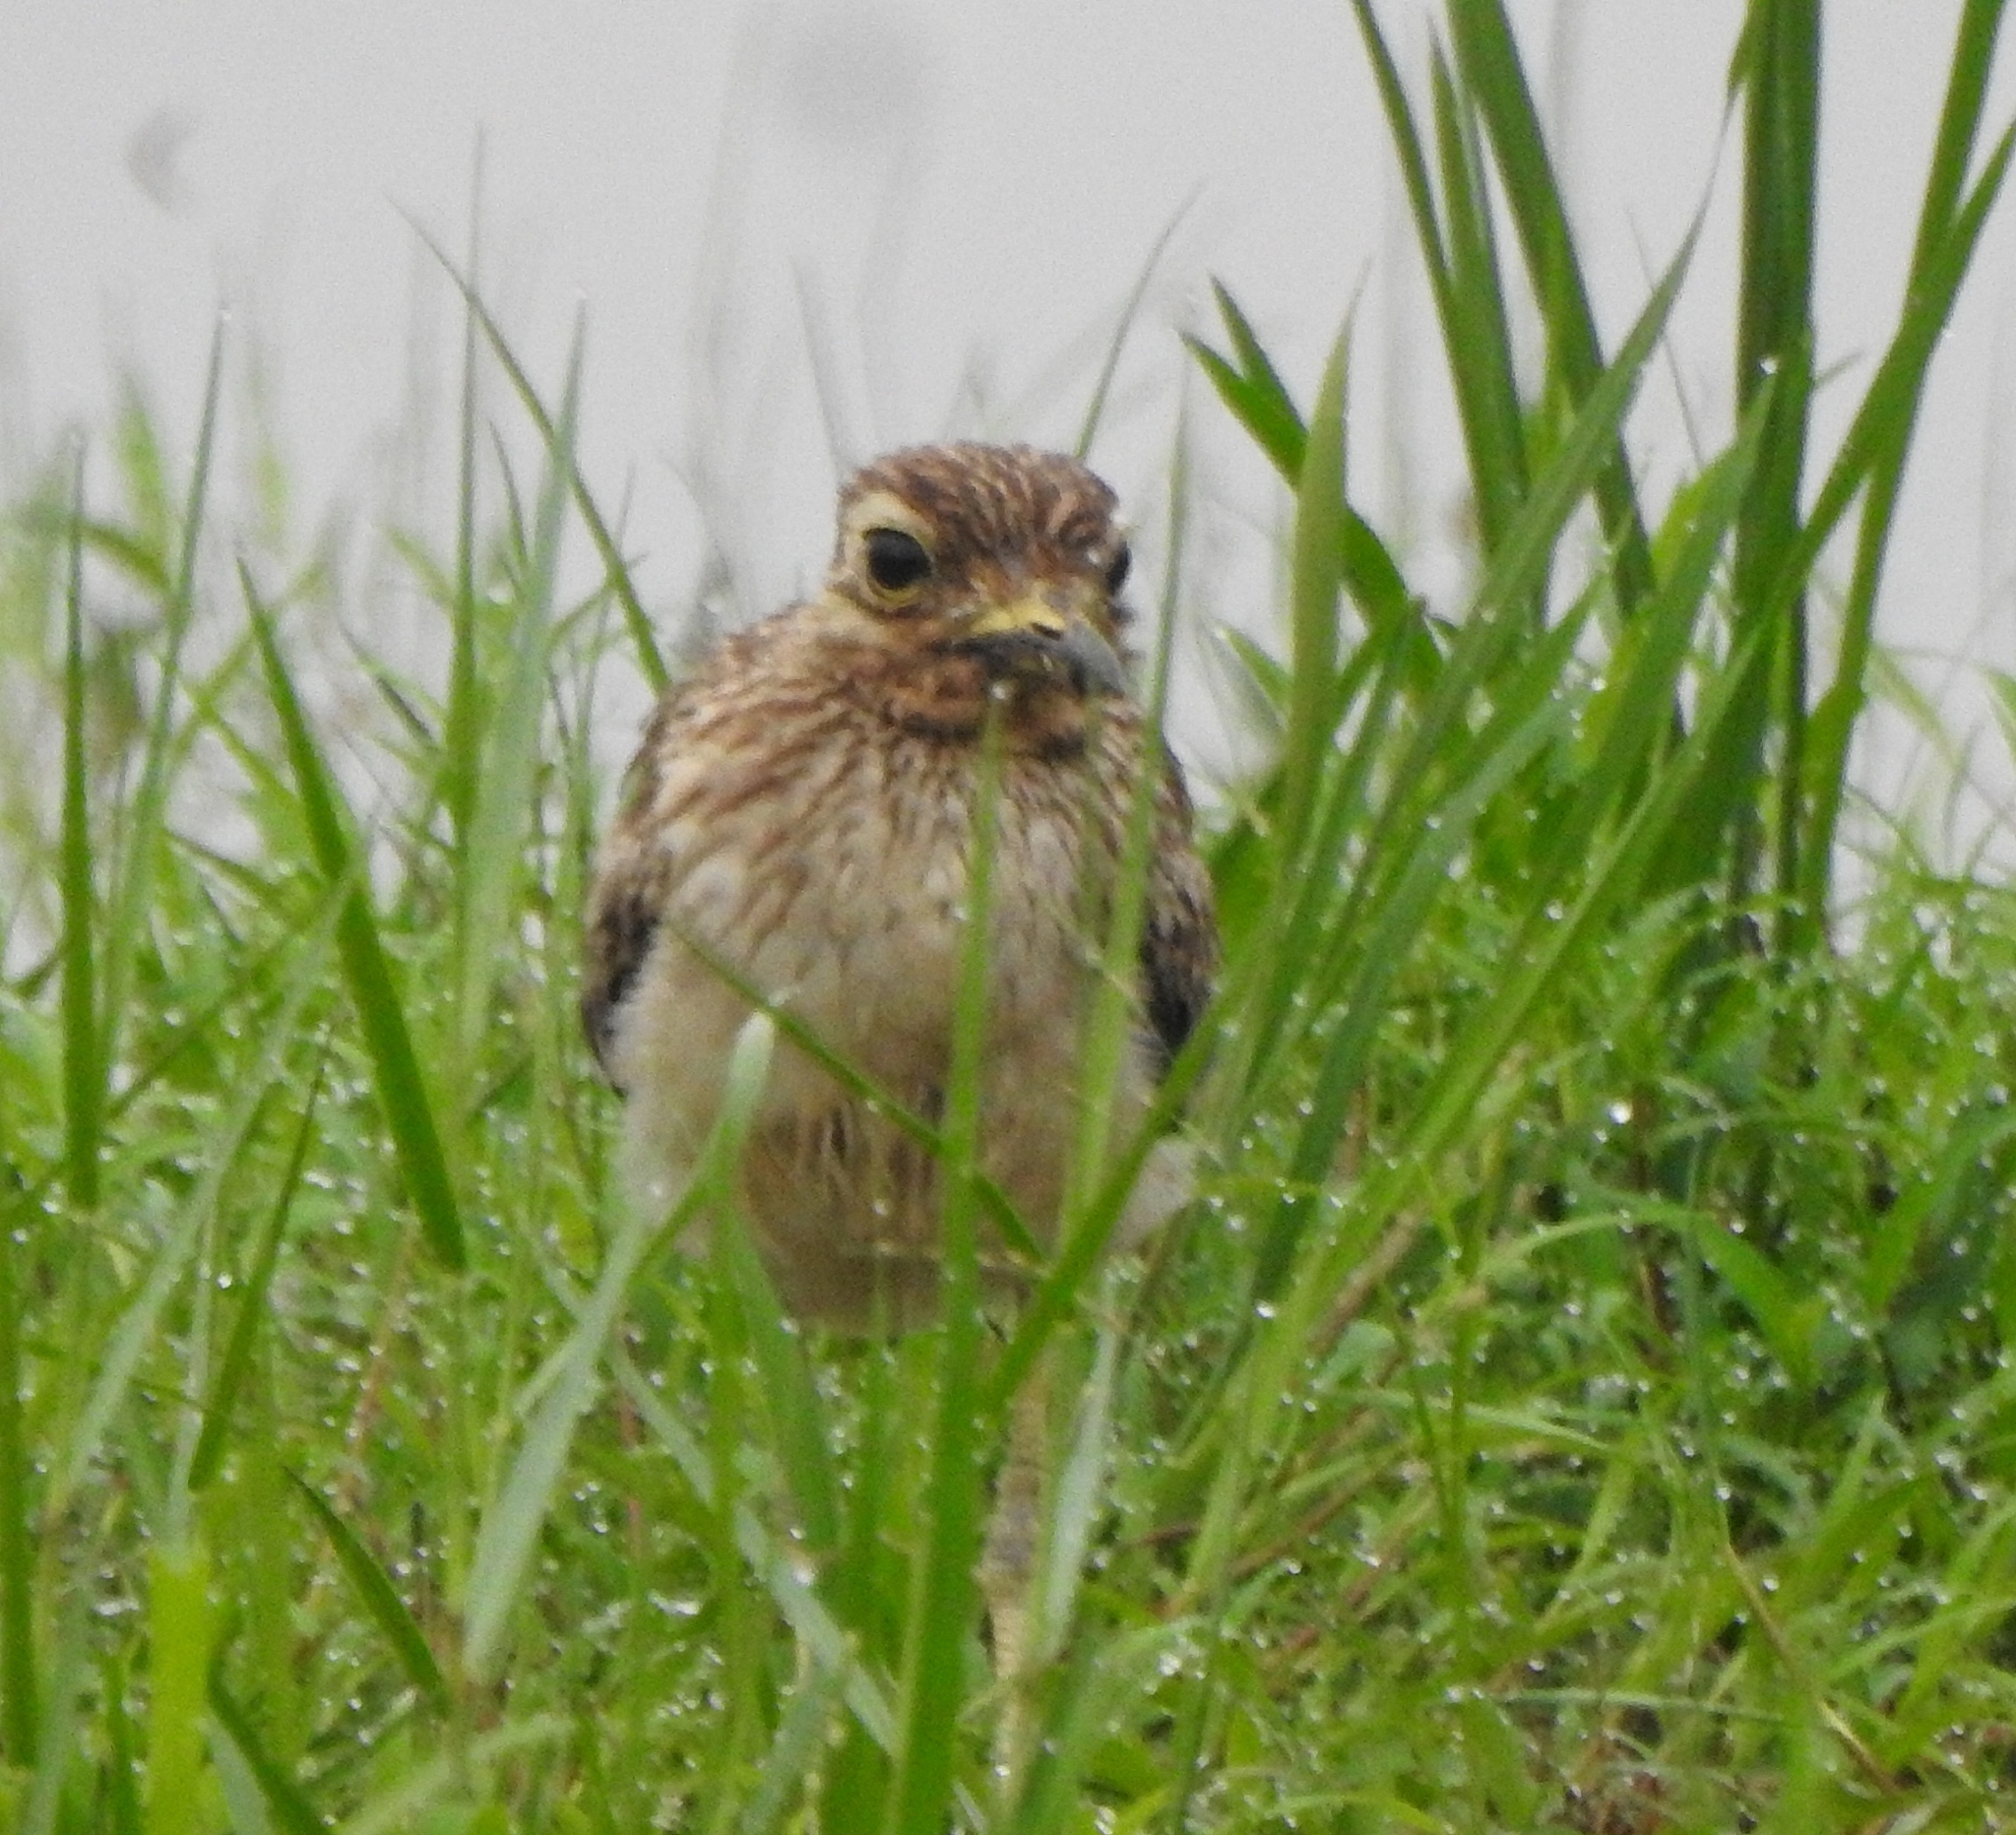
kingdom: Animalia
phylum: Chordata
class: Aves
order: Charadriiformes
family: Burhinidae
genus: Burhinus
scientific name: Burhinus indicus
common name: Indian thick-knee
